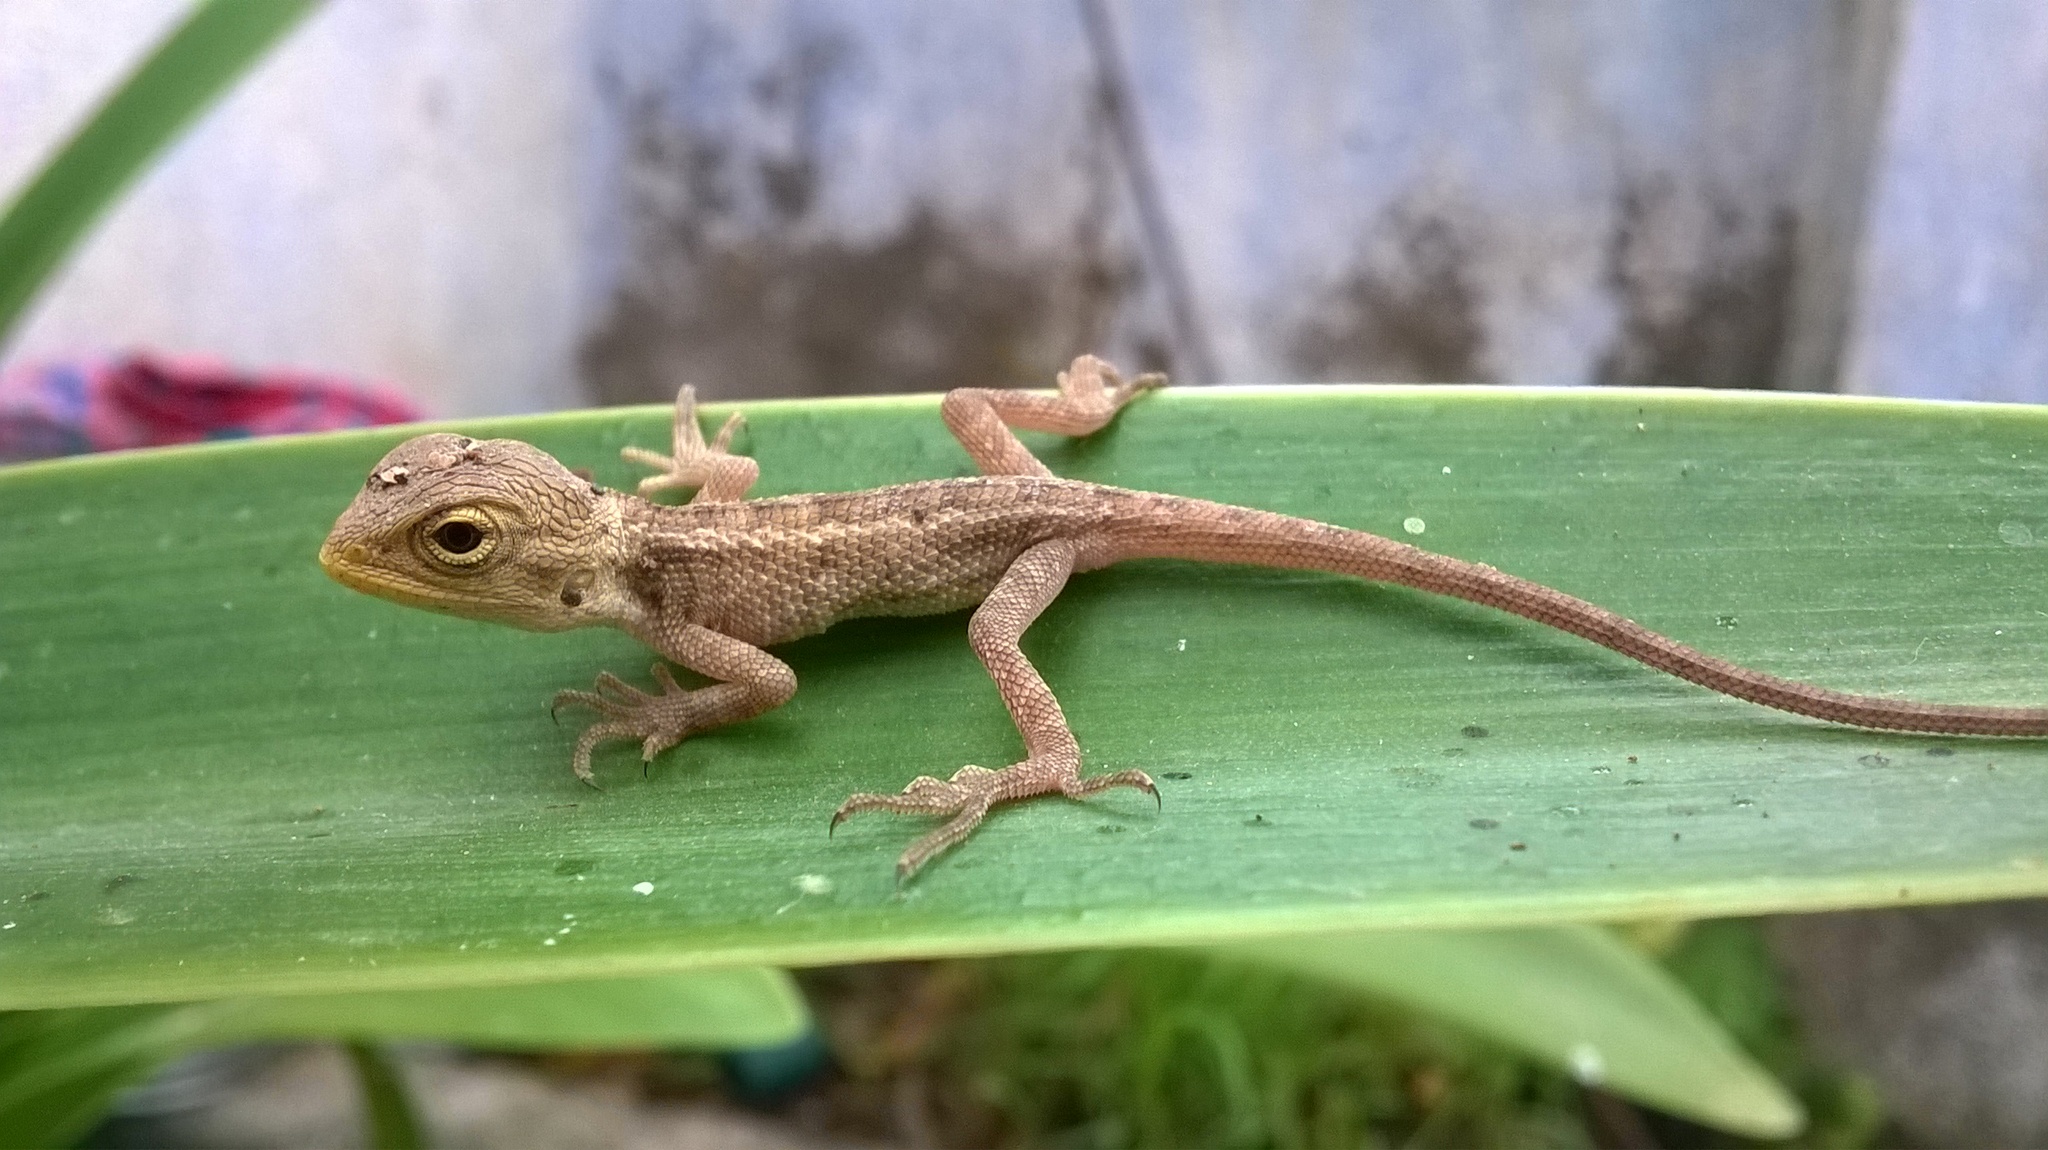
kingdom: Animalia
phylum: Chordata
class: Squamata
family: Agamidae
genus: Calotes
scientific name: Calotes versicolor
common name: Oriental garden lizard
